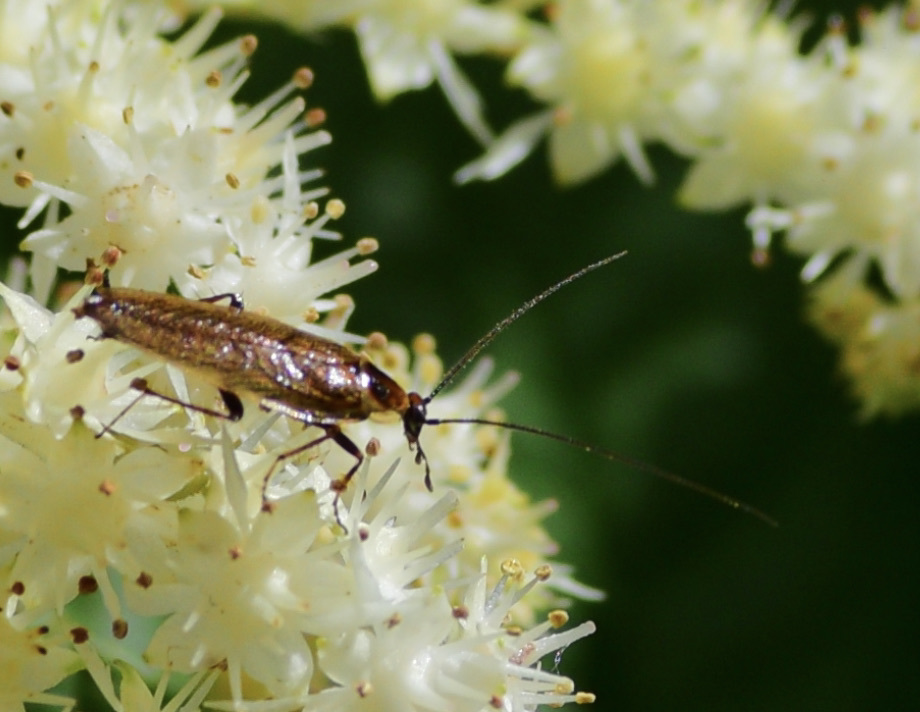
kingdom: Animalia
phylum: Arthropoda
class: Insecta
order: Blattodea
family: Ectobiidae
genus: Ectobius
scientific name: Ectobius lapponicus
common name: Dusky cockroach
